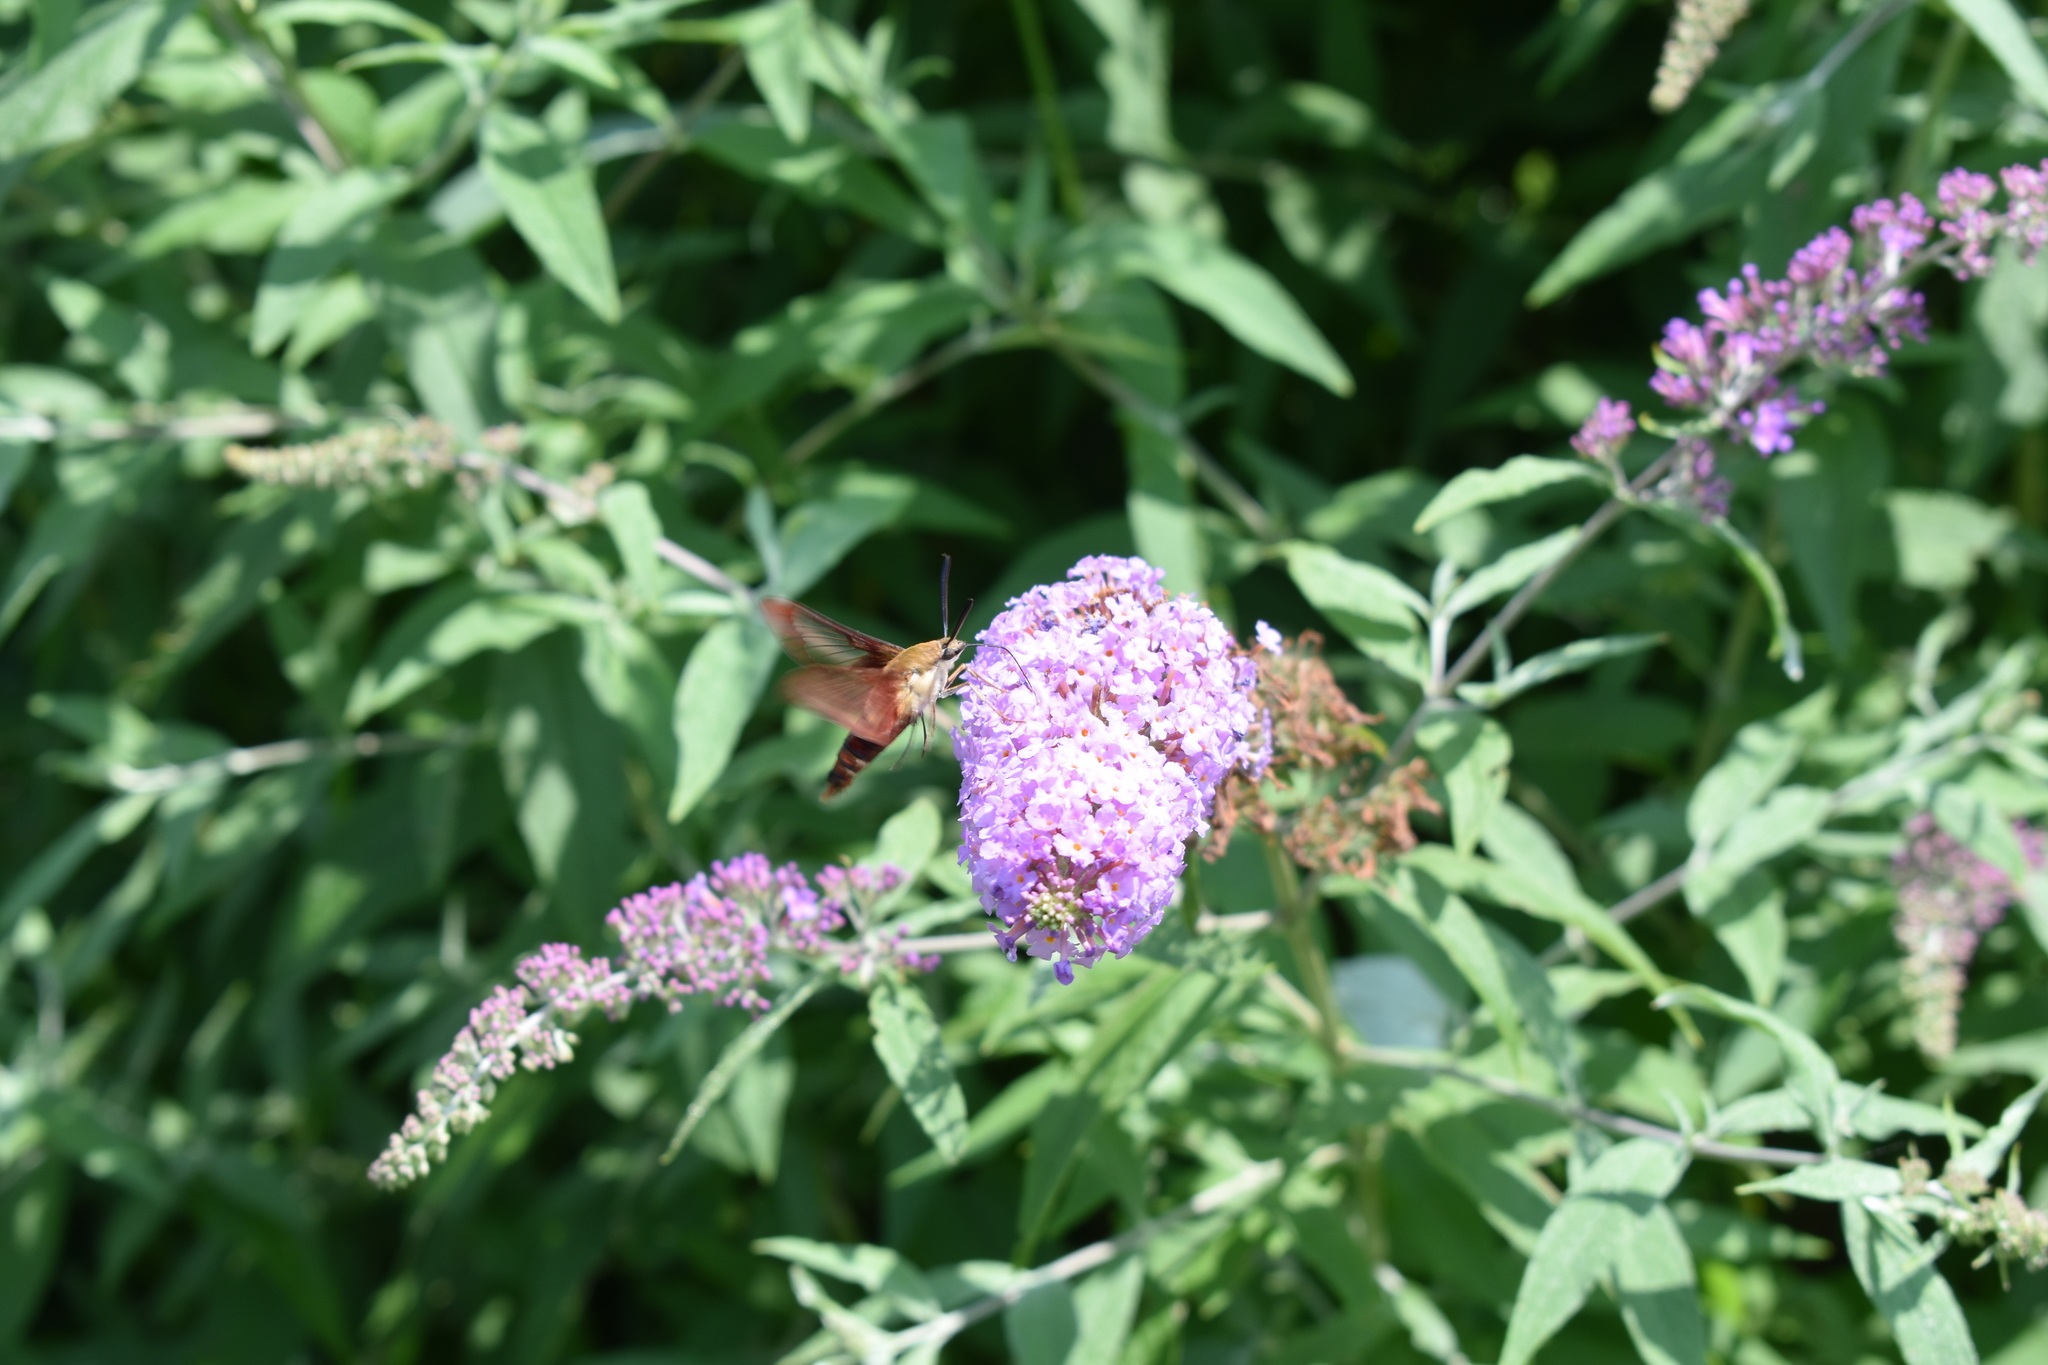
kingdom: Animalia
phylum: Arthropoda
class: Insecta
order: Lepidoptera
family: Sphingidae
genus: Hemaris
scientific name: Hemaris thysbe
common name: Common clear-wing
